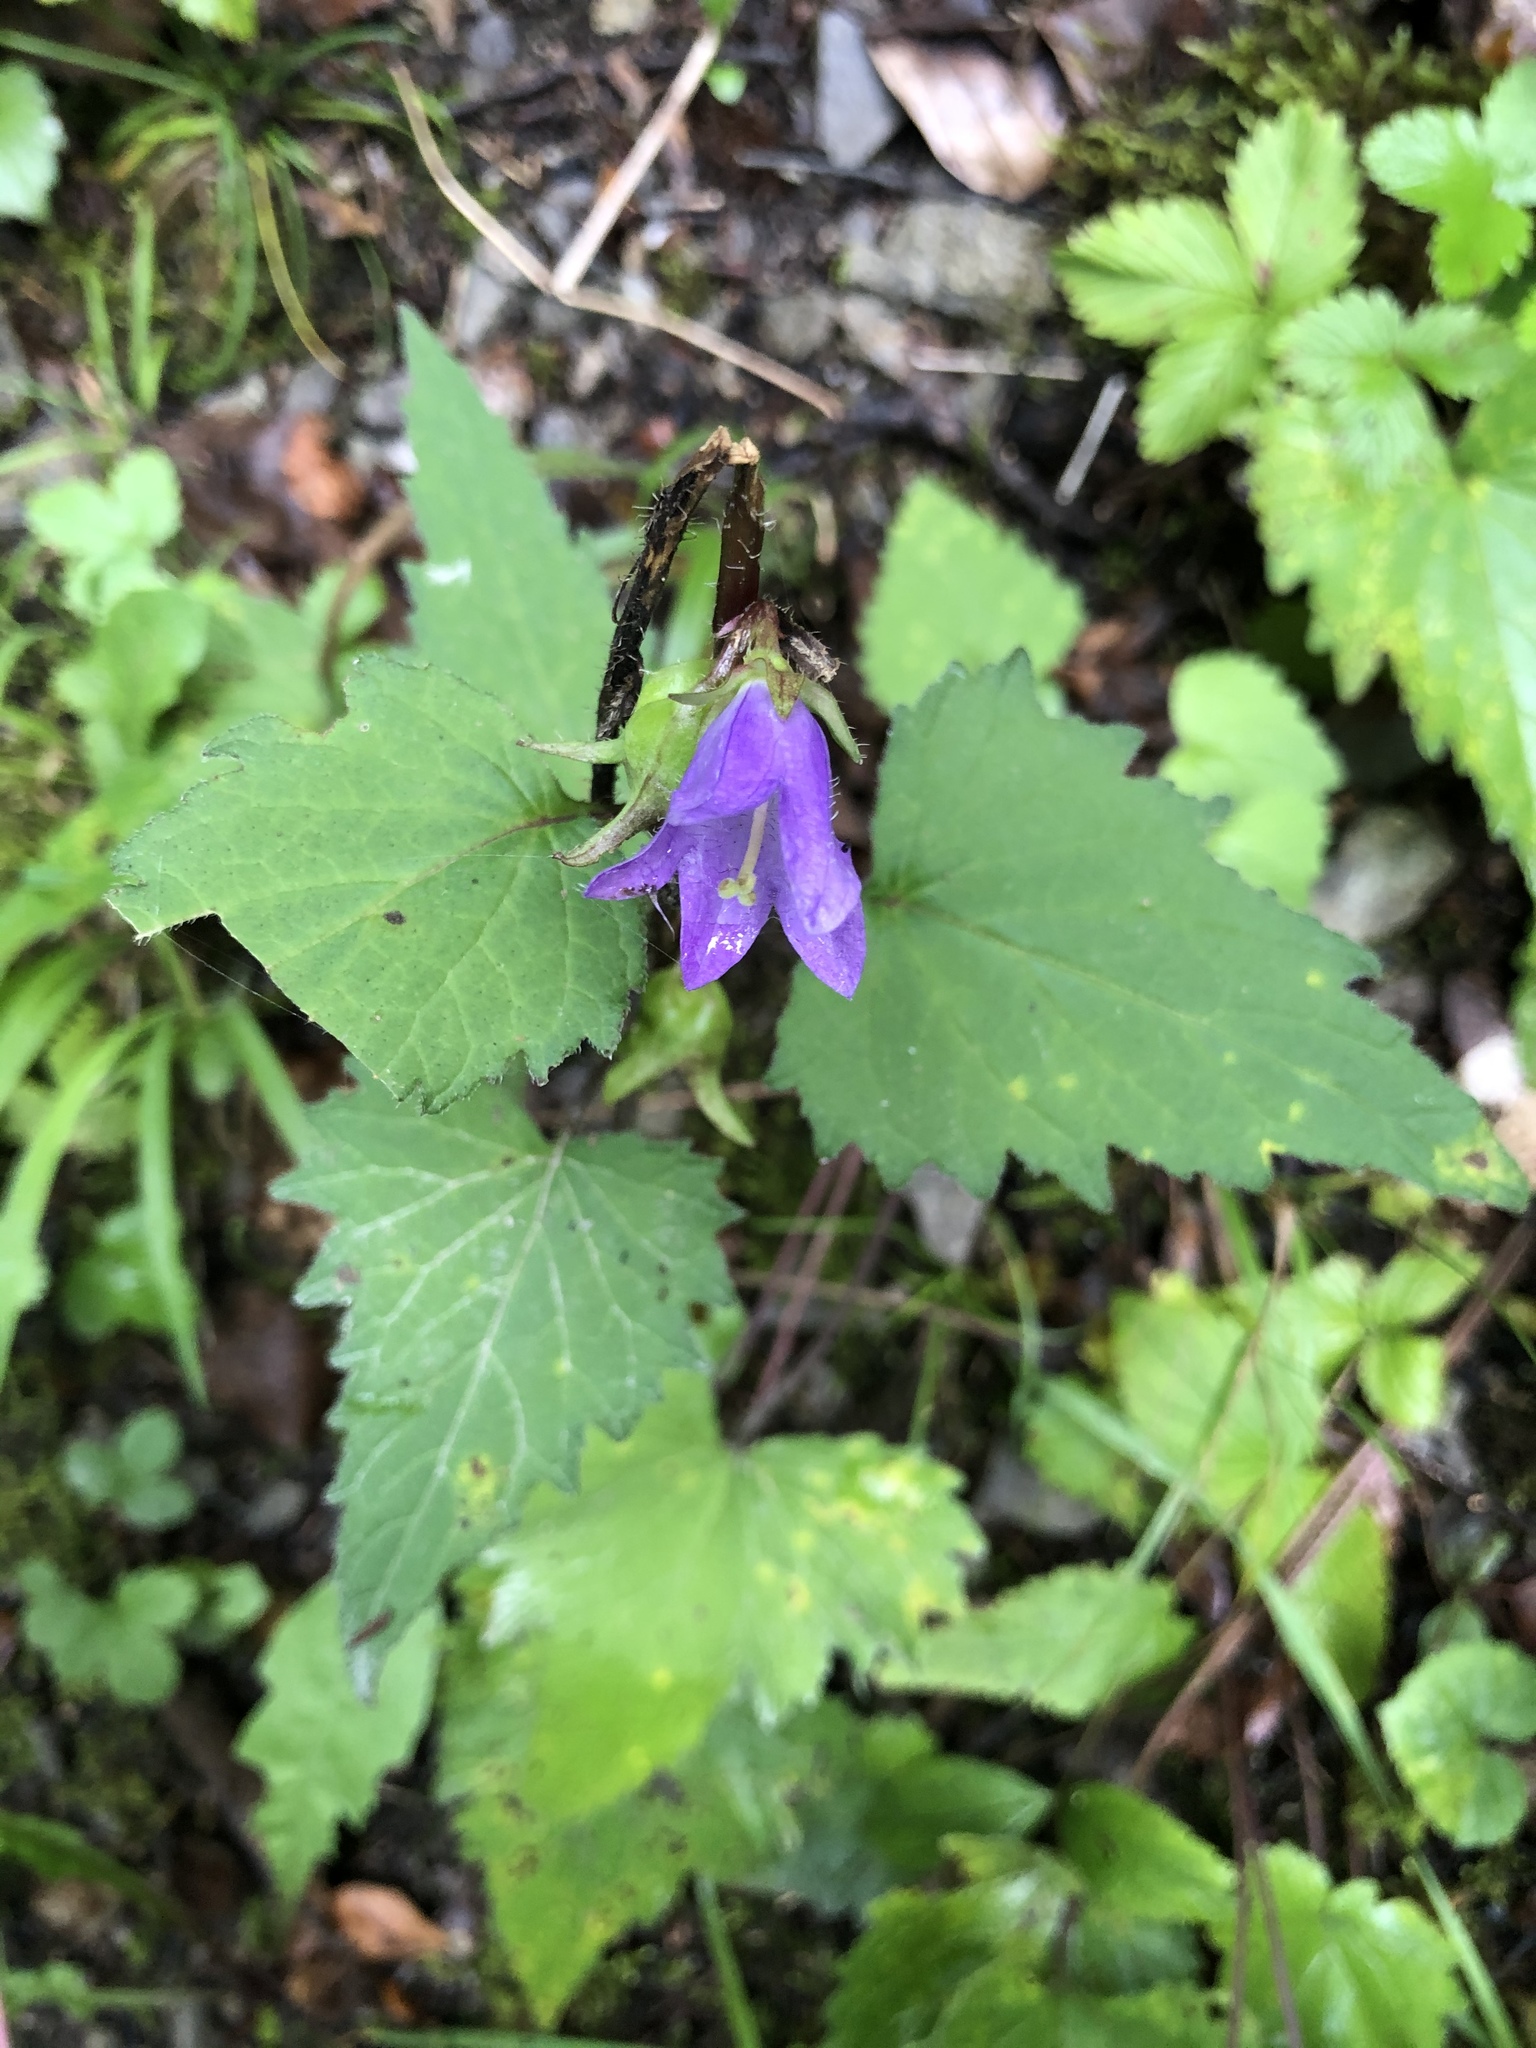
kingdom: Plantae
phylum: Tracheophyta
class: Magnoliopsida
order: Asterales
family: Campanulaceae
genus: Campanula
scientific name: Campanula trachelium
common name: Nettle-leaved bellflower
